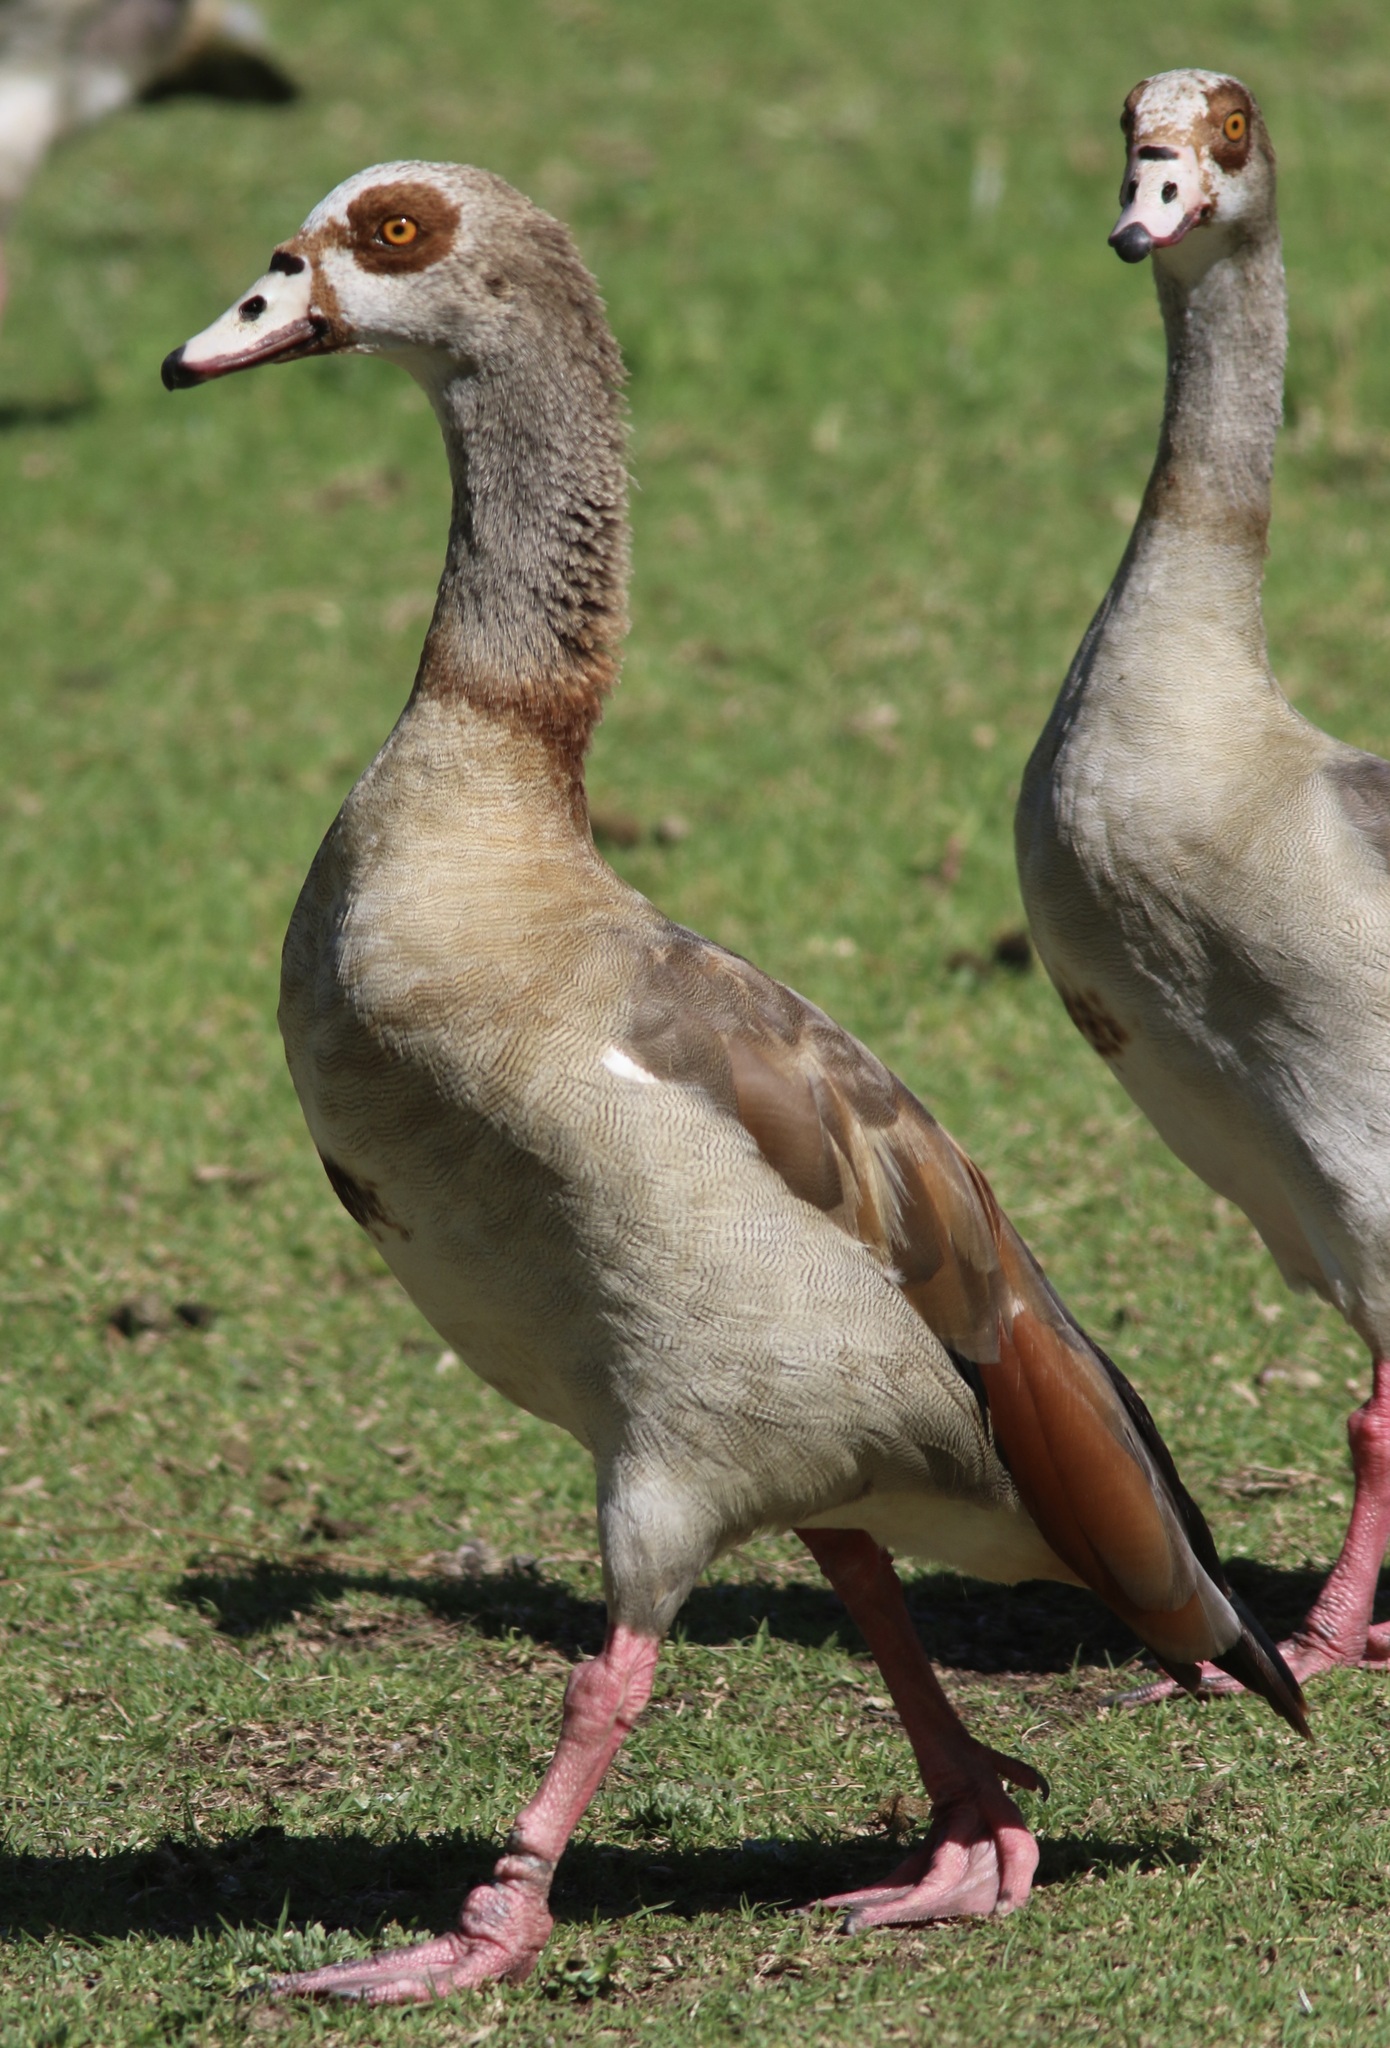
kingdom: Animalia
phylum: Chordata
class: Aves
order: Anseriformes
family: Anatidae
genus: Alopochen
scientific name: Alopochen aegyptiaca
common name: Egyptian goose
